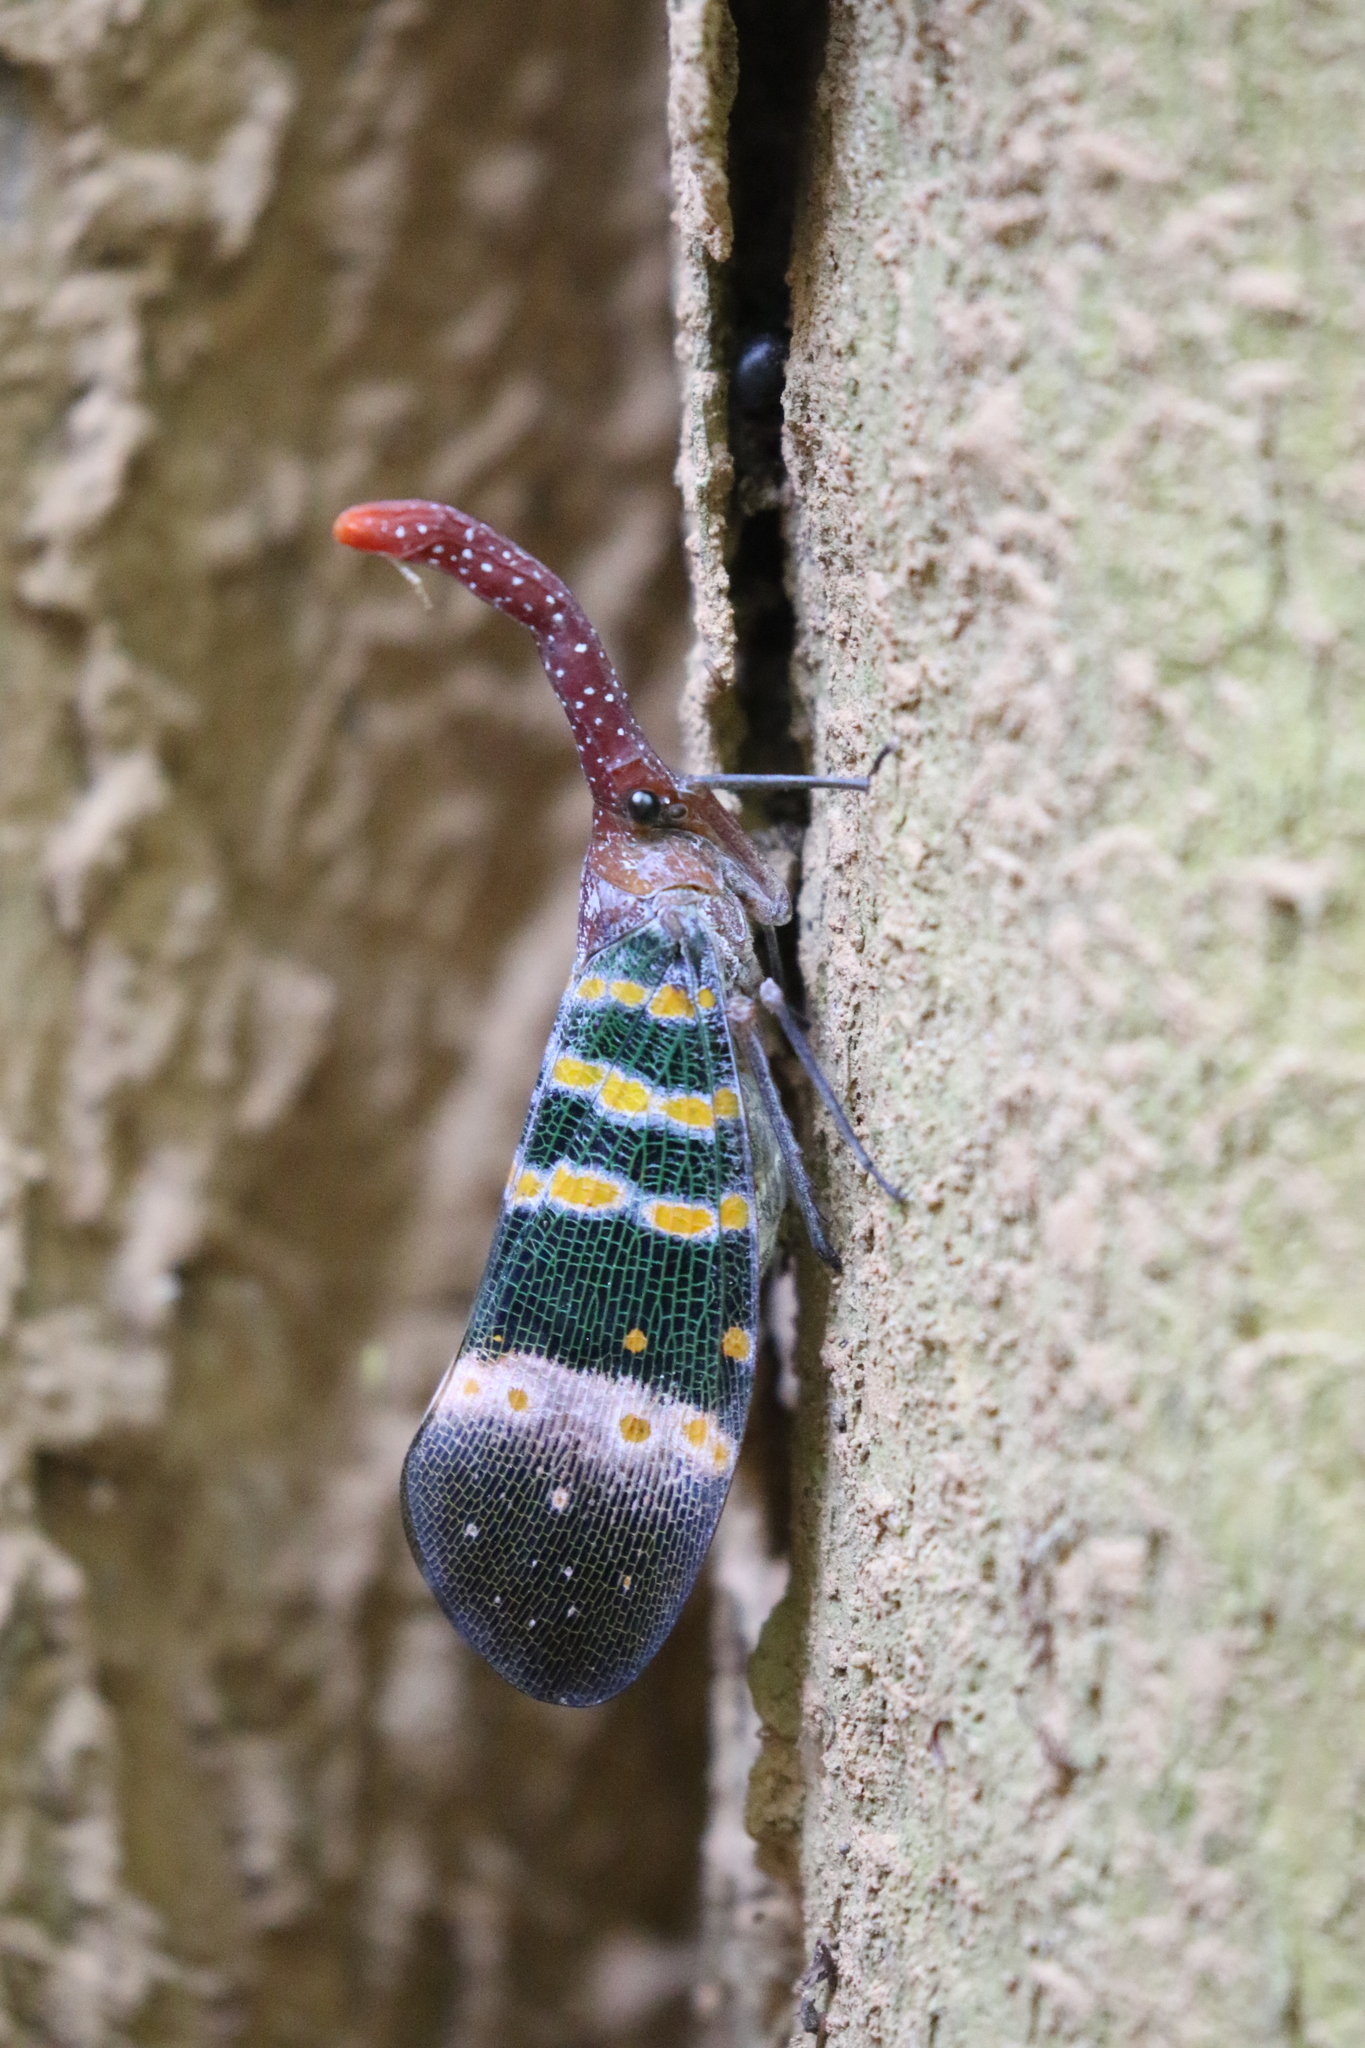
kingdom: Animalia
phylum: Arthropoda
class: Insecta
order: Hemiptera
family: Fulgoridae
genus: Pyrops
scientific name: Pyrops karenius
